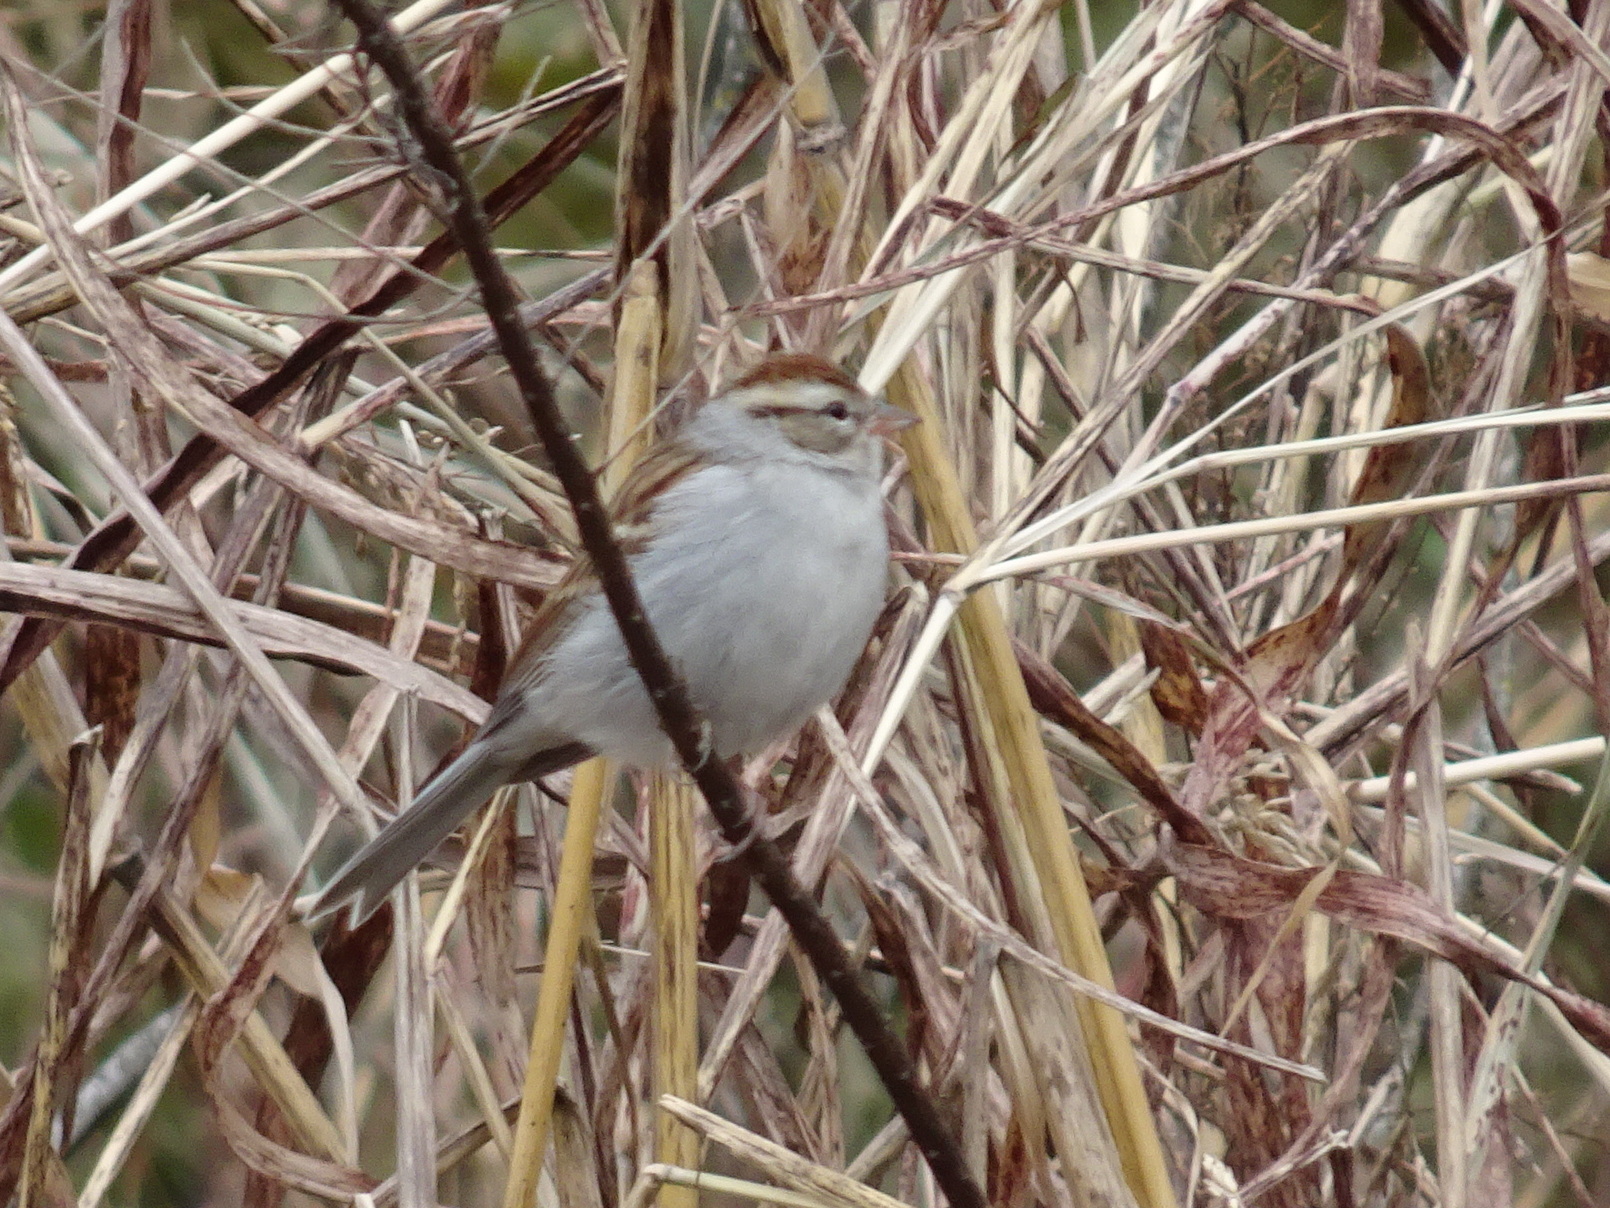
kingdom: Animalia
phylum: Chordata
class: Aves
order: Passeriformes
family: Passerellidae
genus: Spizella
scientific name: Spizella passerina
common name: Chipping sparrow
